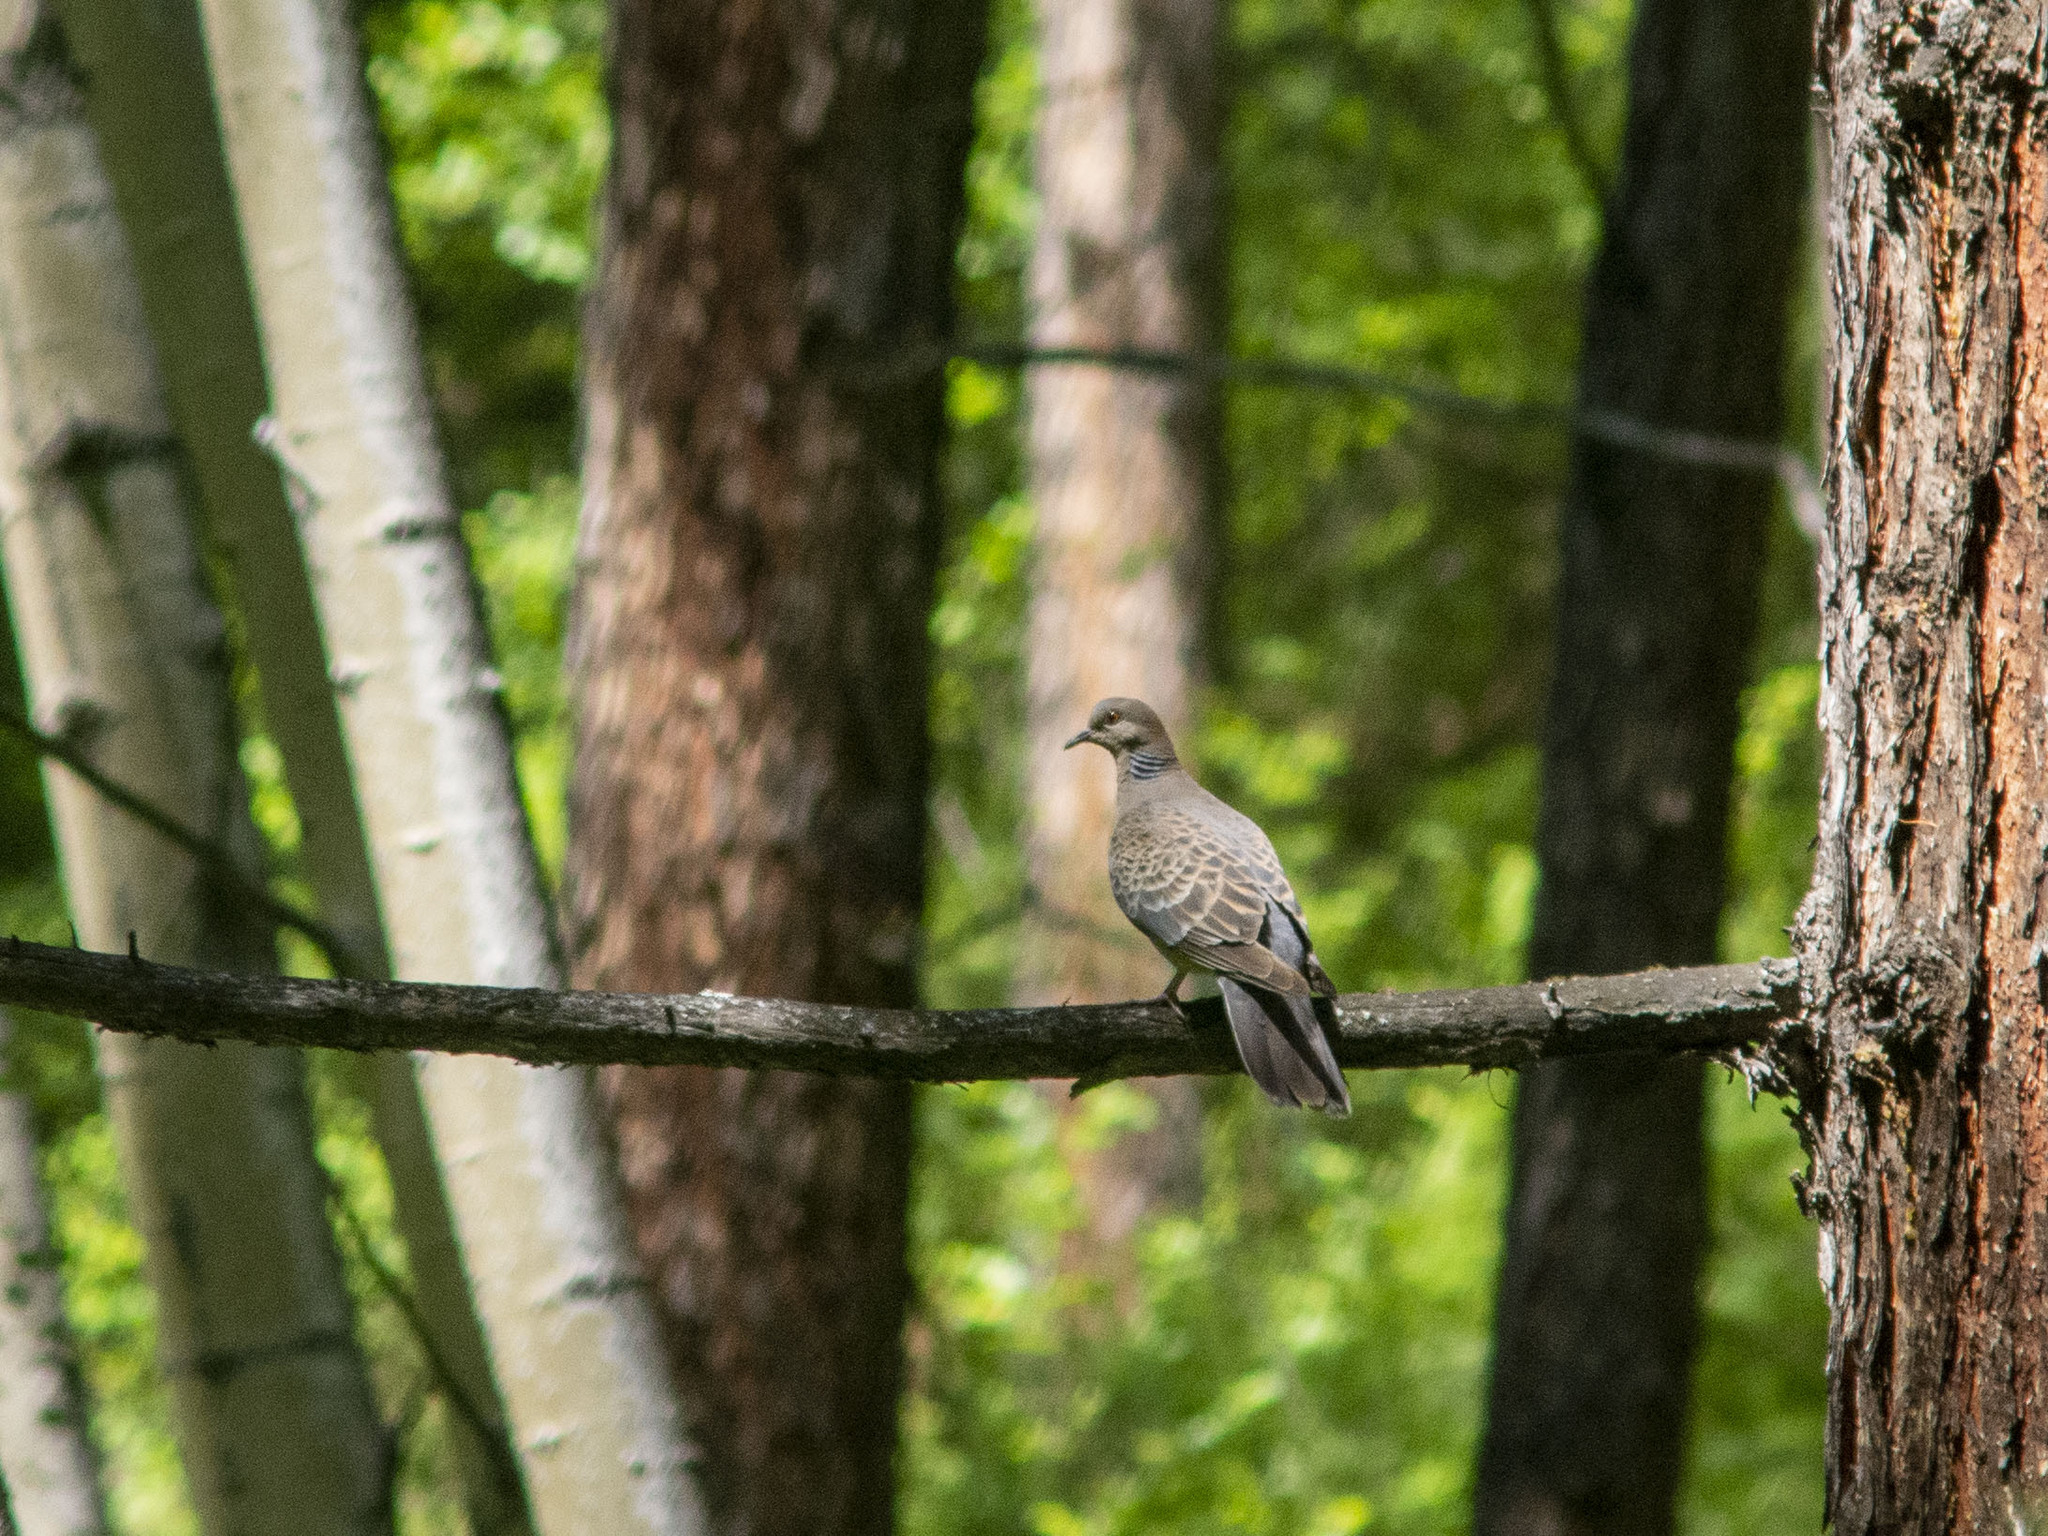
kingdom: Animalia
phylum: Chordata
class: Aves
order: Columbiformes
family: Columbidae
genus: Streptopelia
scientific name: Streptopelia orientalis
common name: Oriental turtle dove
